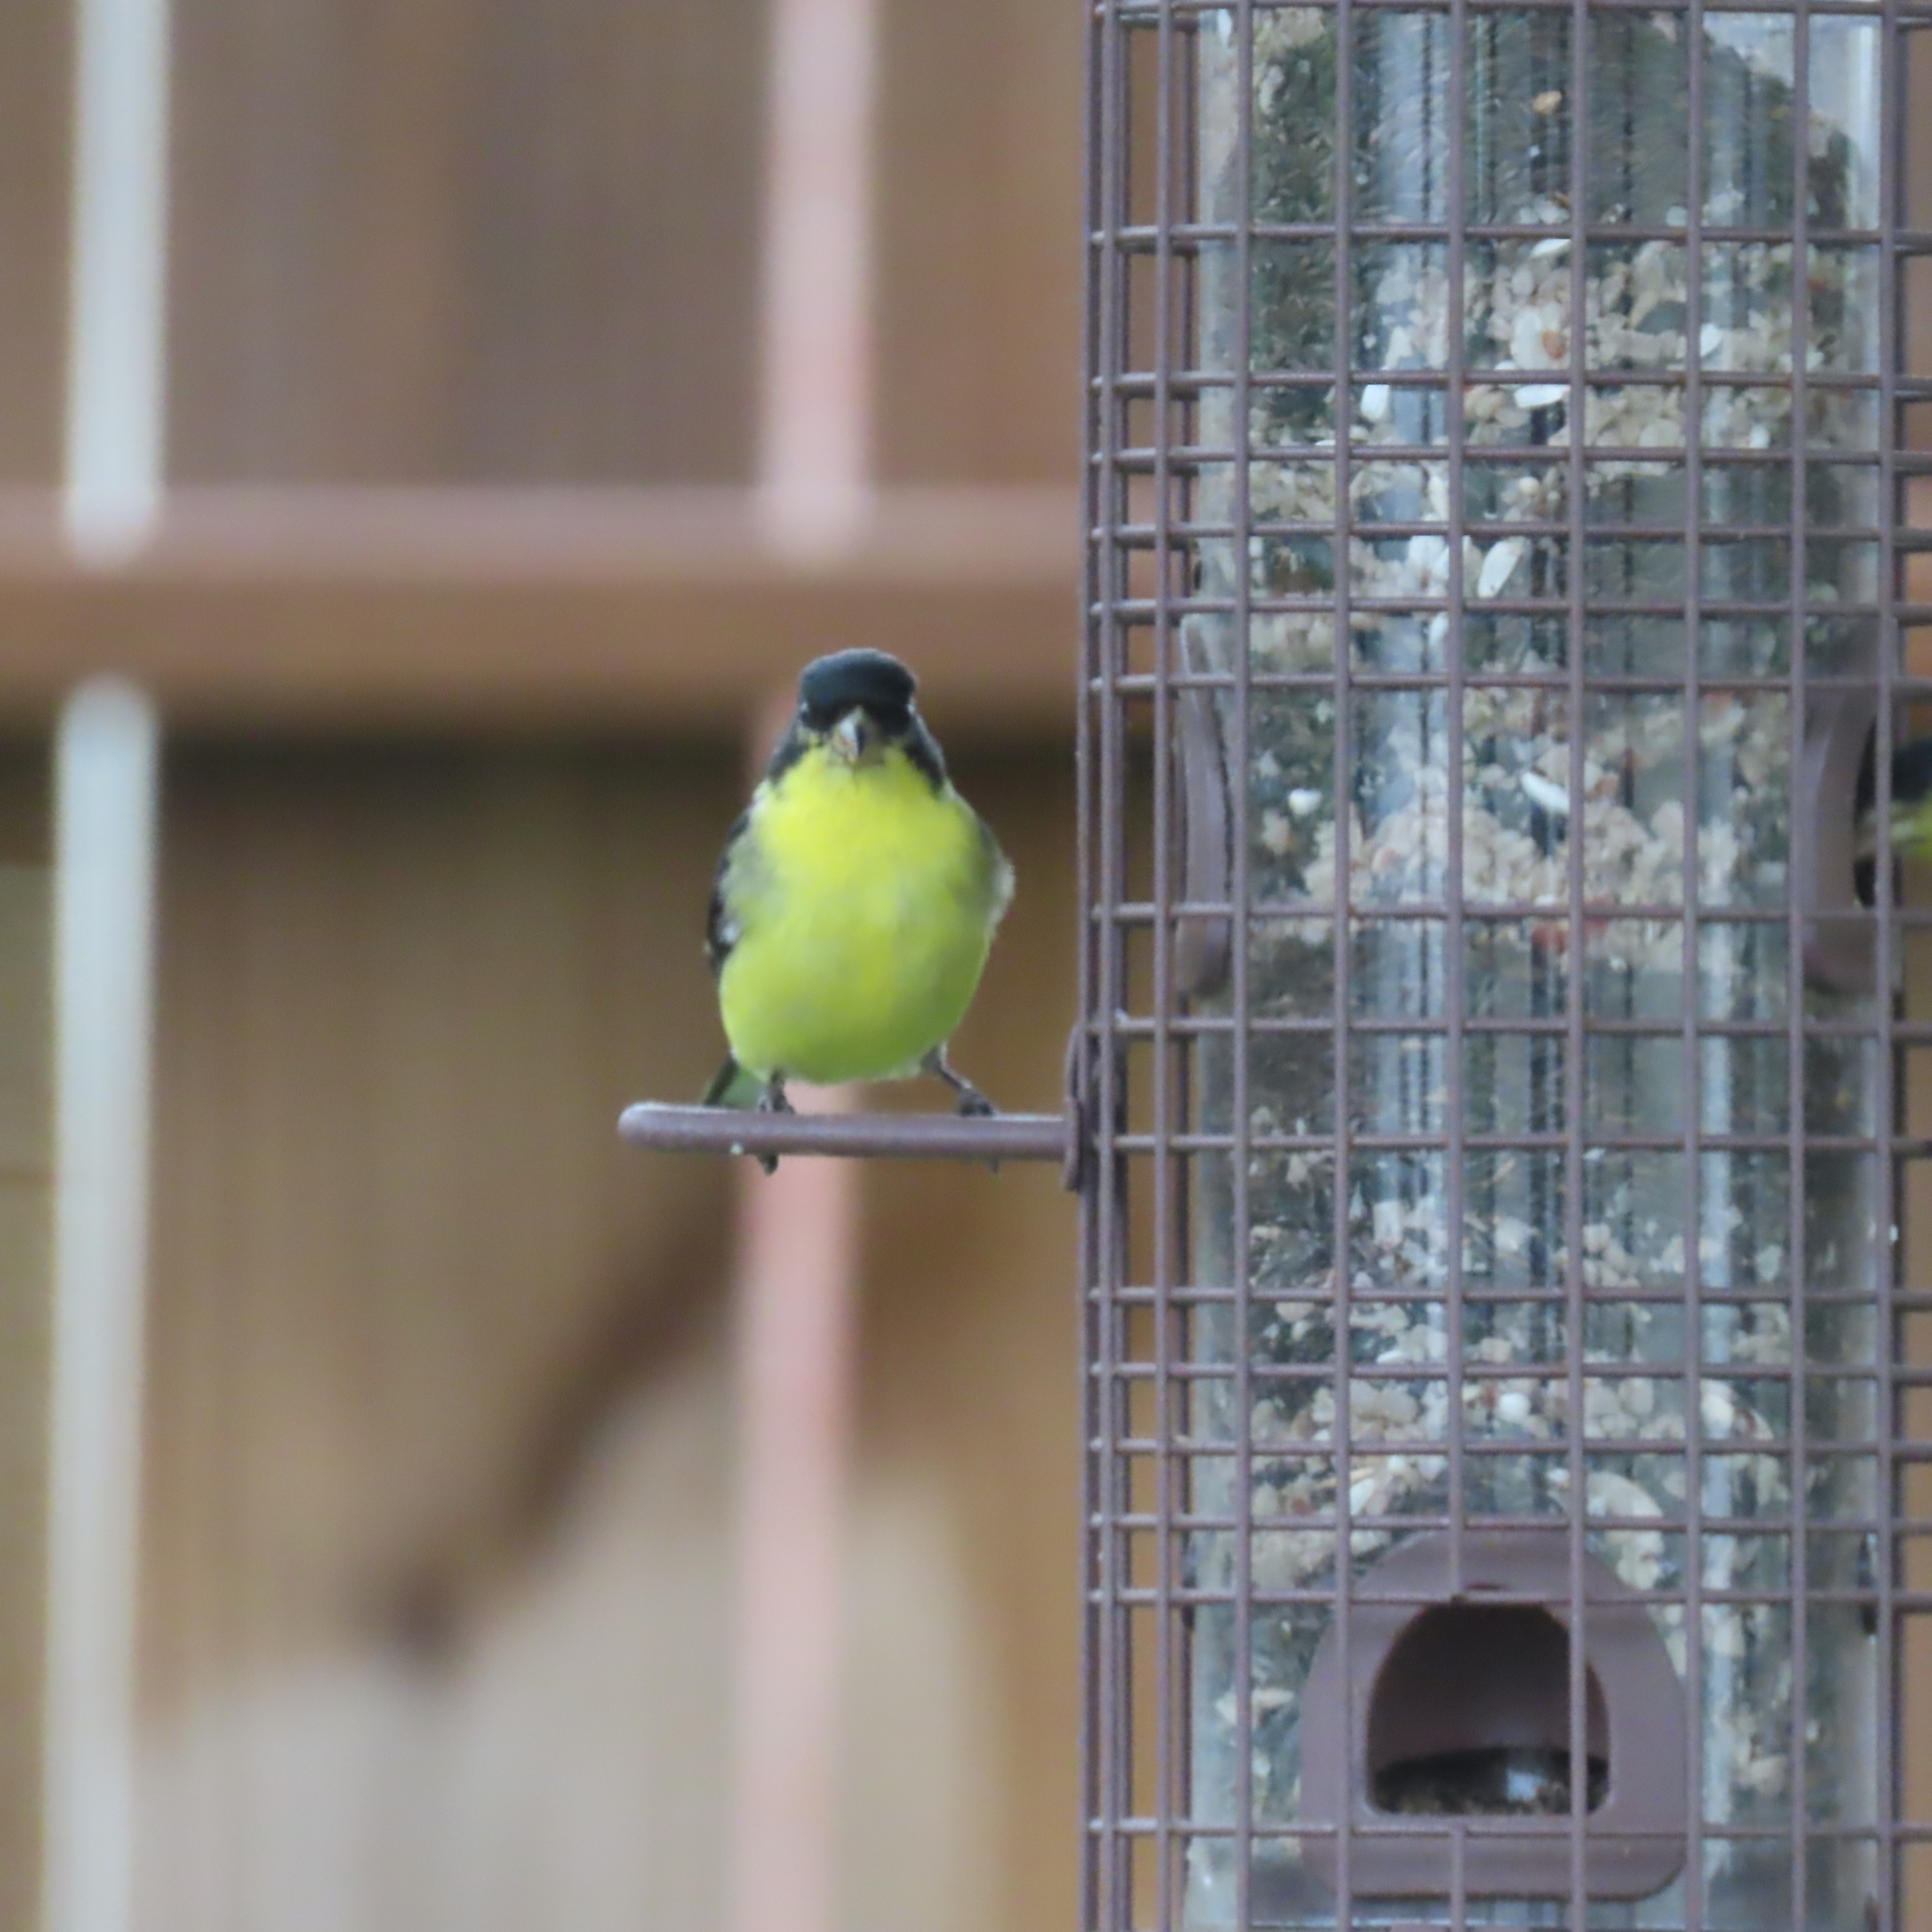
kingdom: Animalia
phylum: Chordata
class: Aves
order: Passeriformes
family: Fringillidae
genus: Spinus
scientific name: Spinus psaltria
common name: Lesser goldfinch
